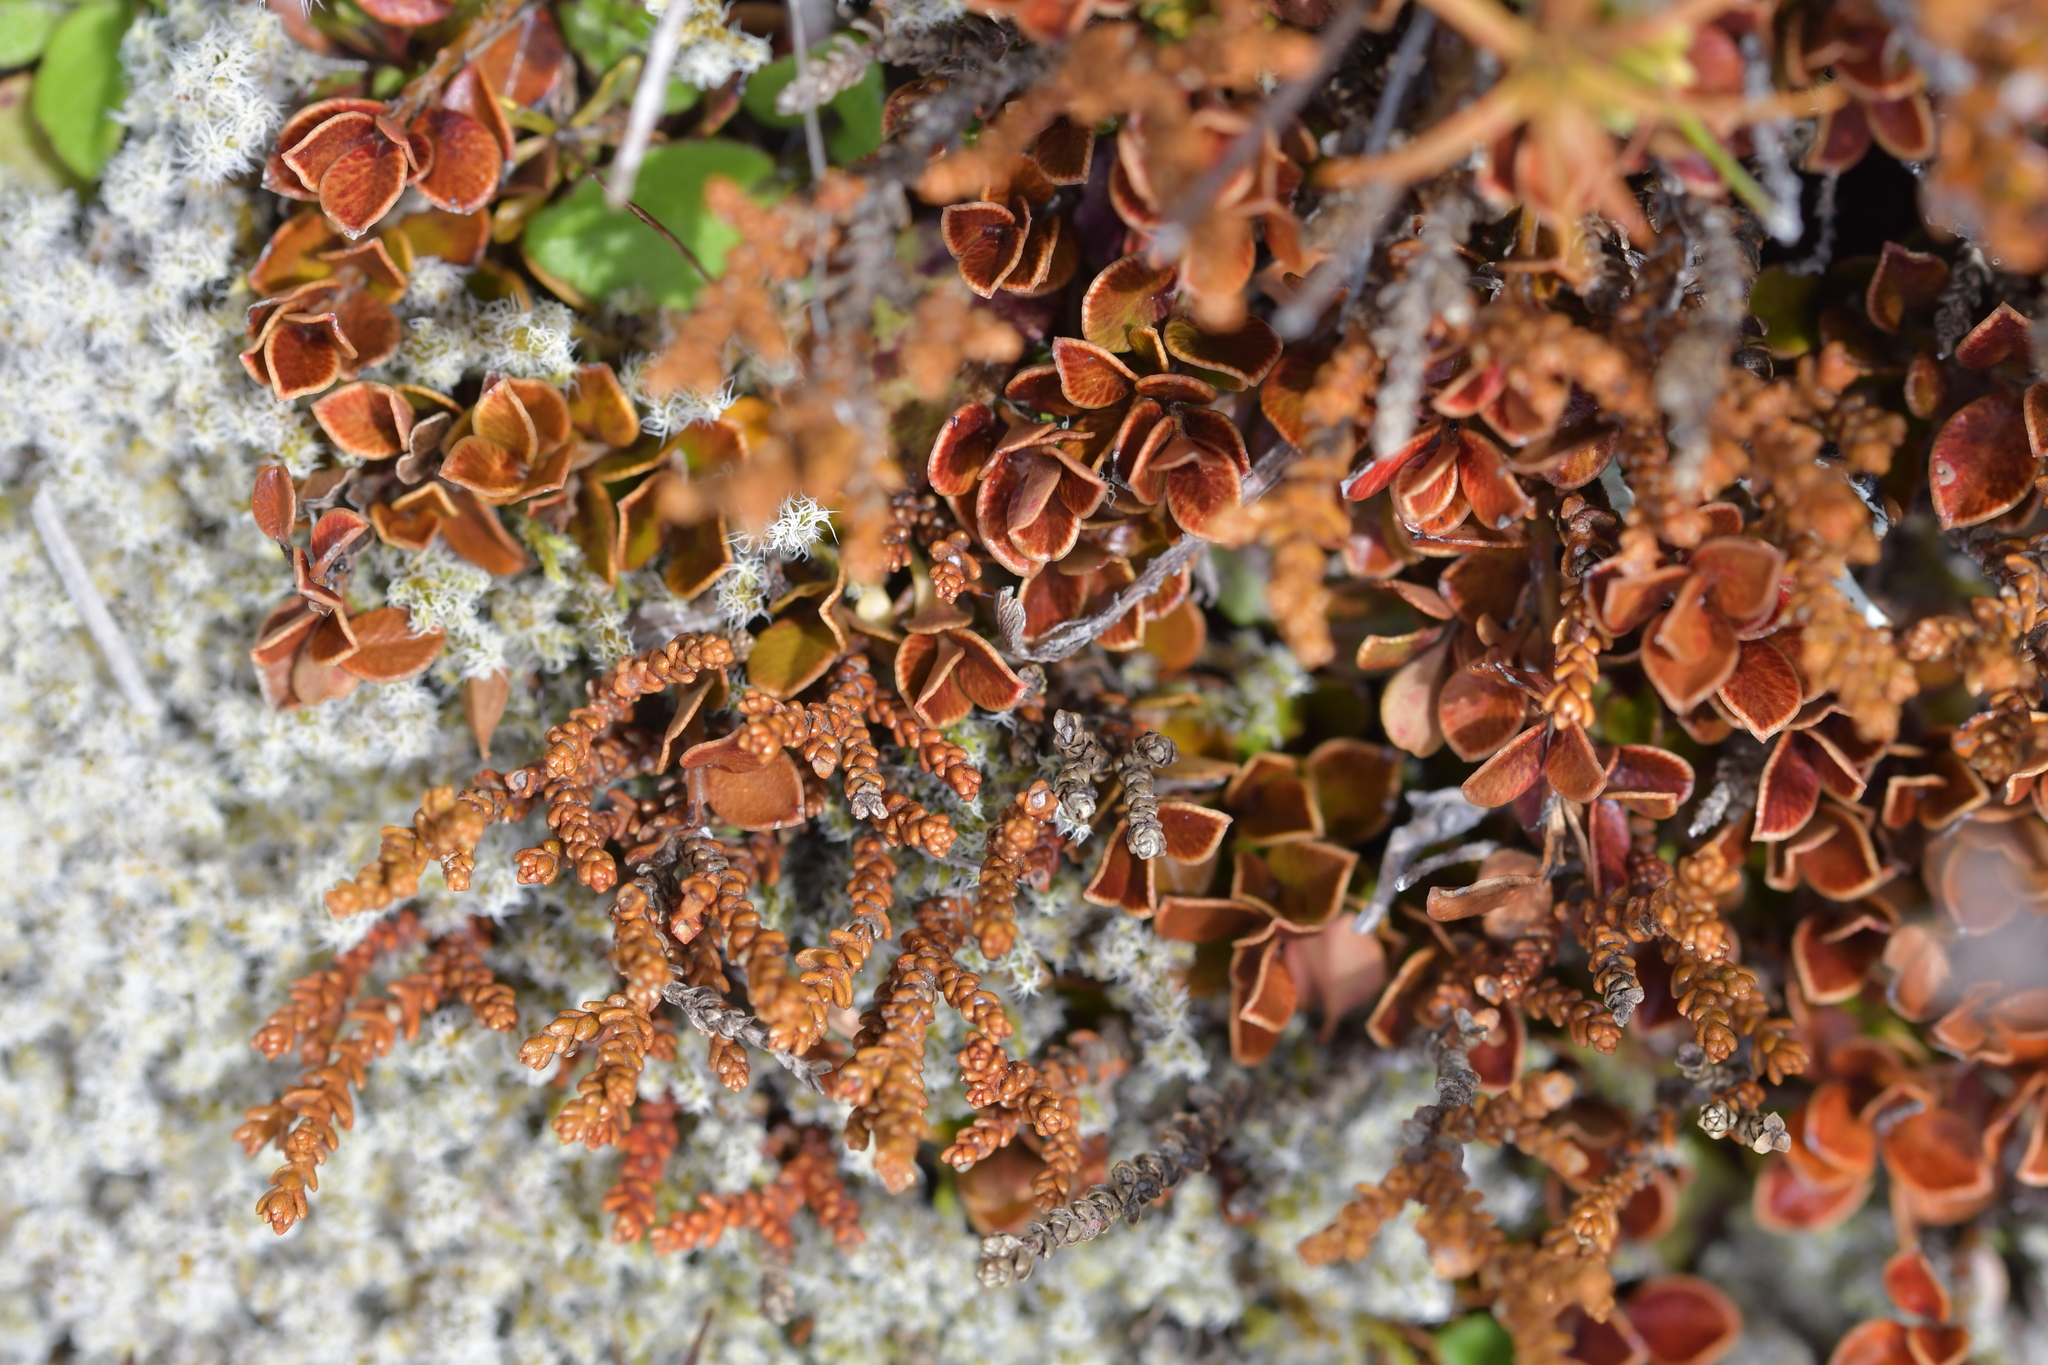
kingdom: Plantae
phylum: Tracheophyta
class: Magnoliopsida
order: Ericales
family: Primulaceae
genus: Myrsine
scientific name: Myrsine nummularia
